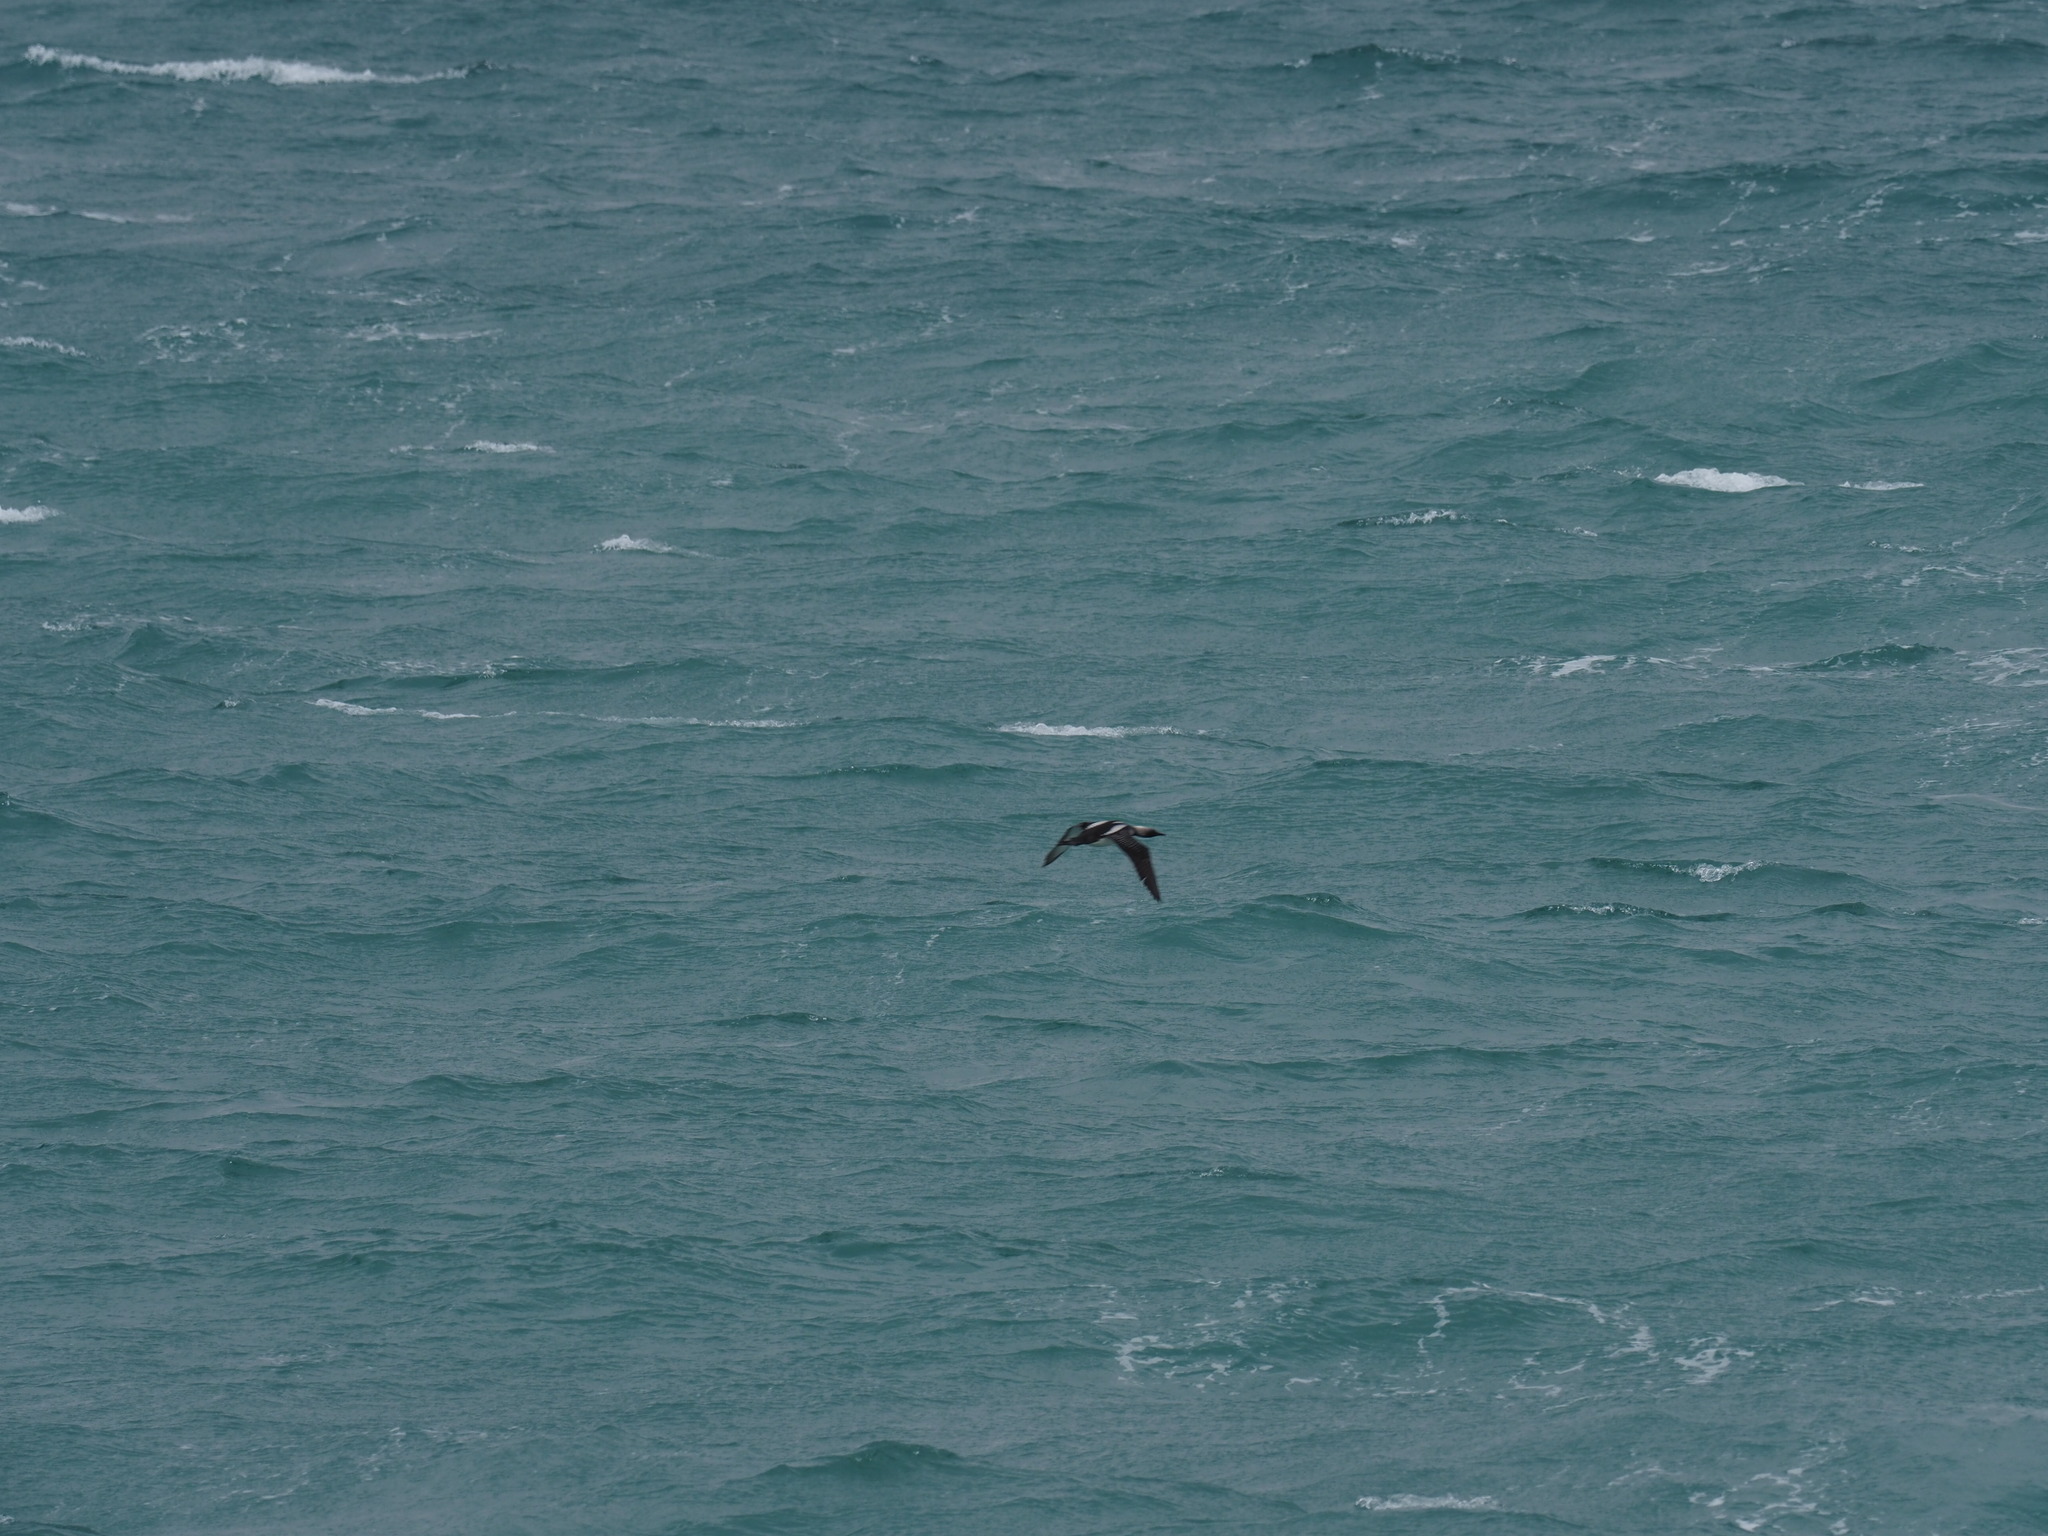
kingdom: Animalia
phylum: Chordata
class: Aves
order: Gaviiformes
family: Gaviidae
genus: Gavia
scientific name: Gavia pacifica
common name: Pacific loon
